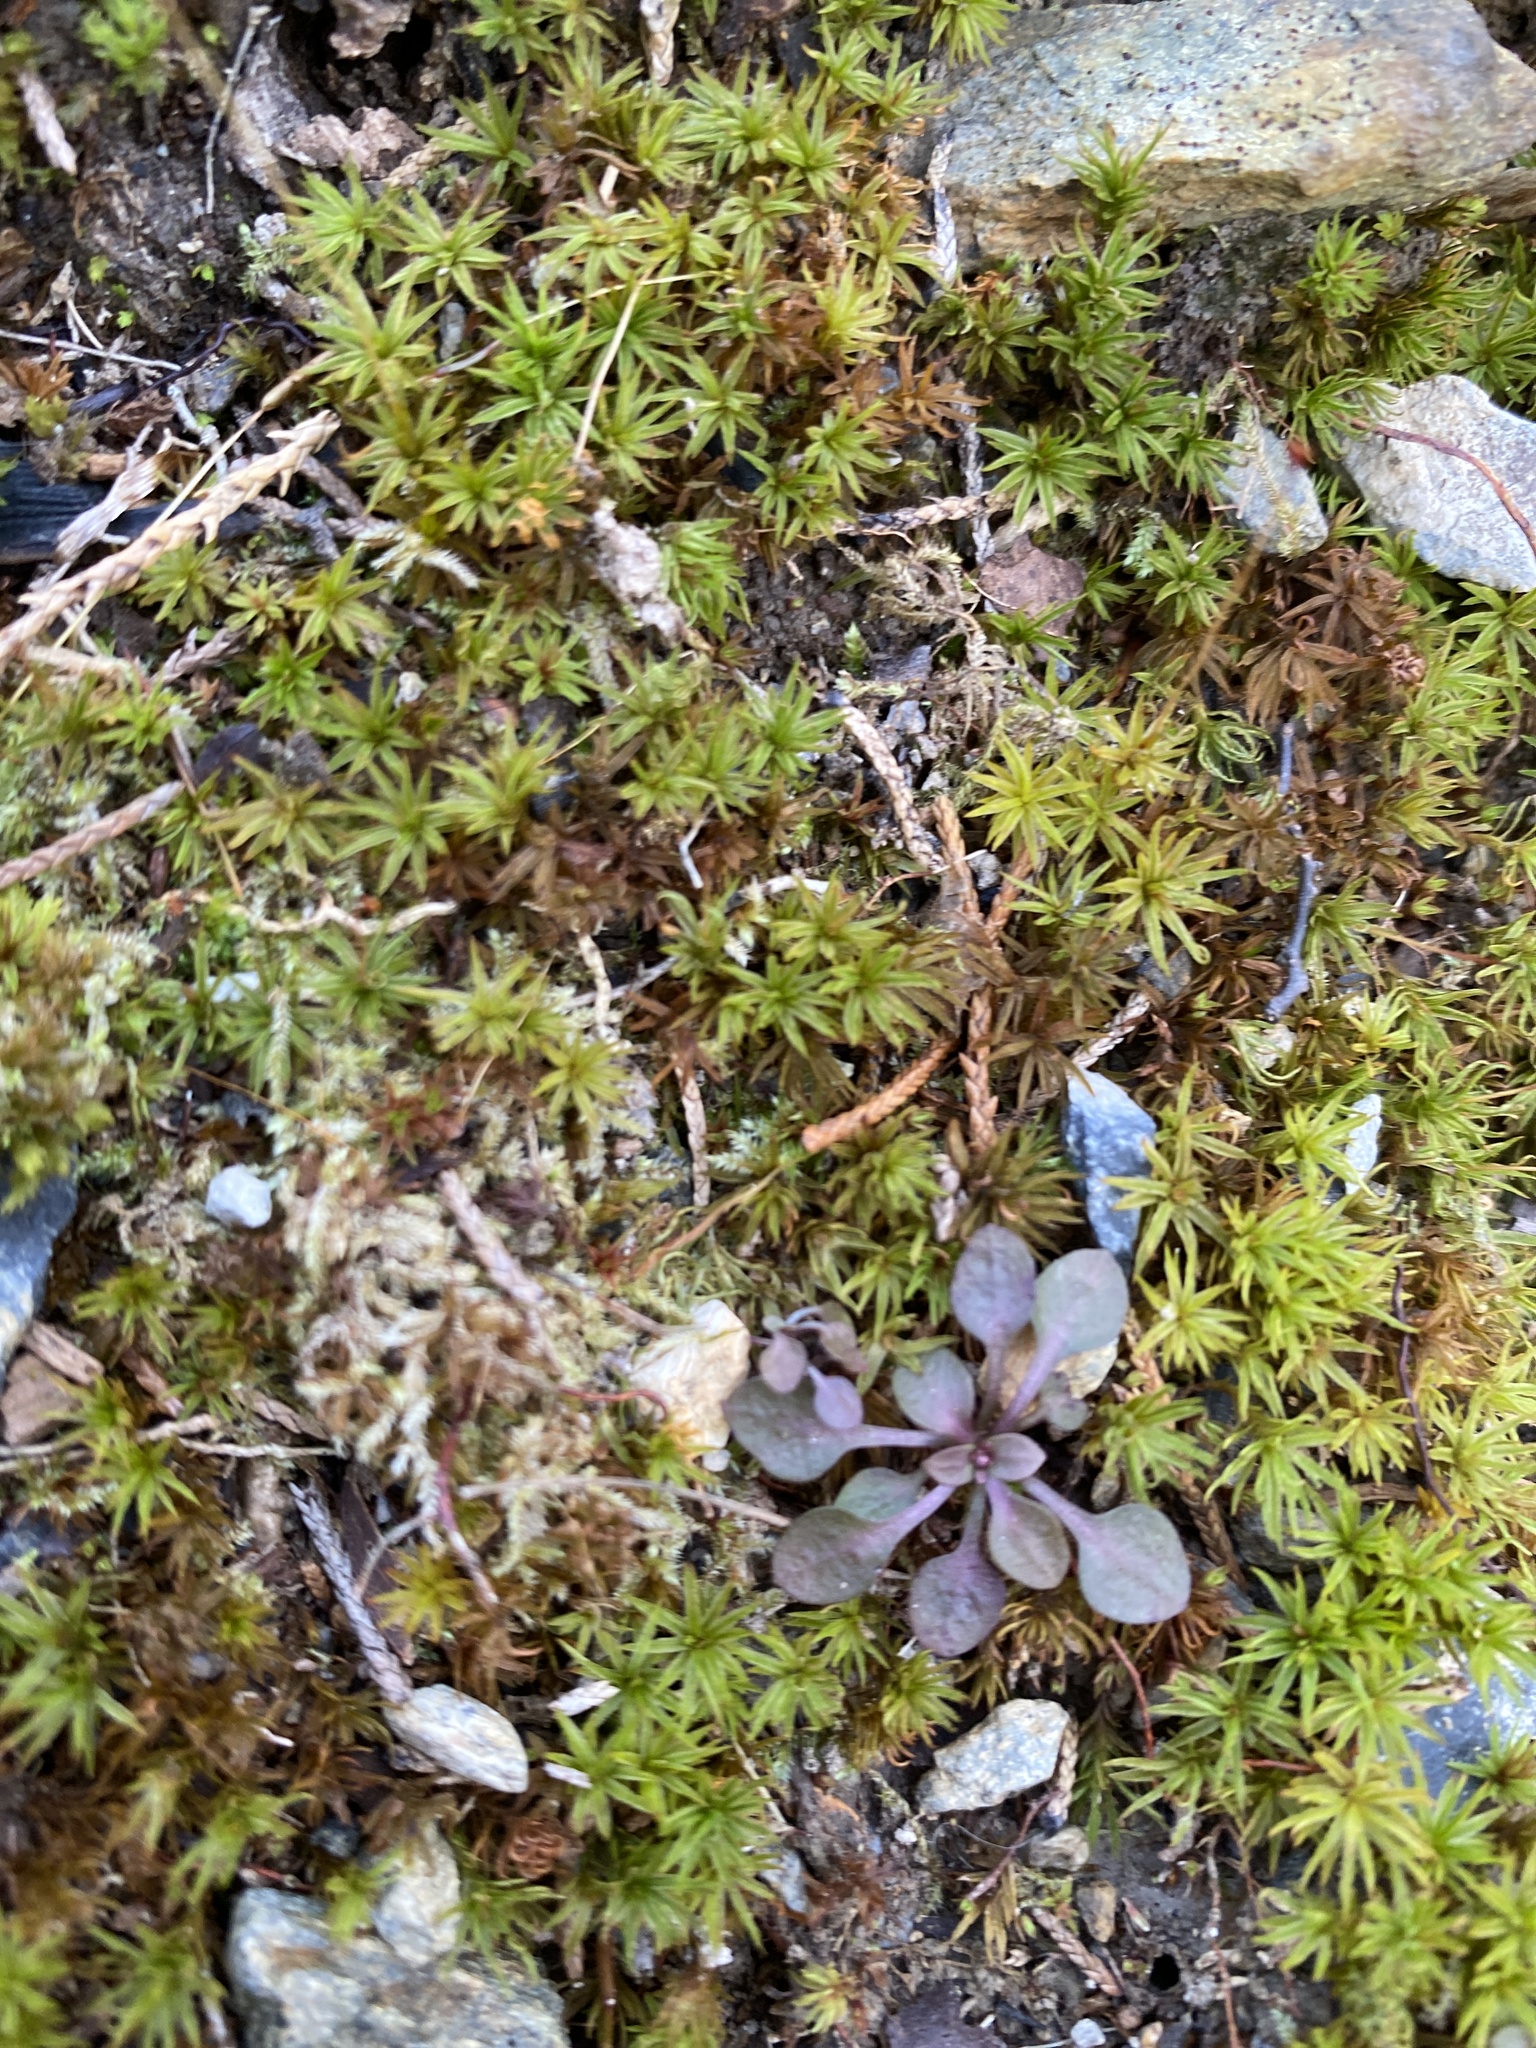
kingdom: Plantae
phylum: Tracheophyta
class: Magnoliopsida
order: Gentianales
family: Rubiaceae
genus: Houstonia
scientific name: Houstonia caerulea
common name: Bluets
